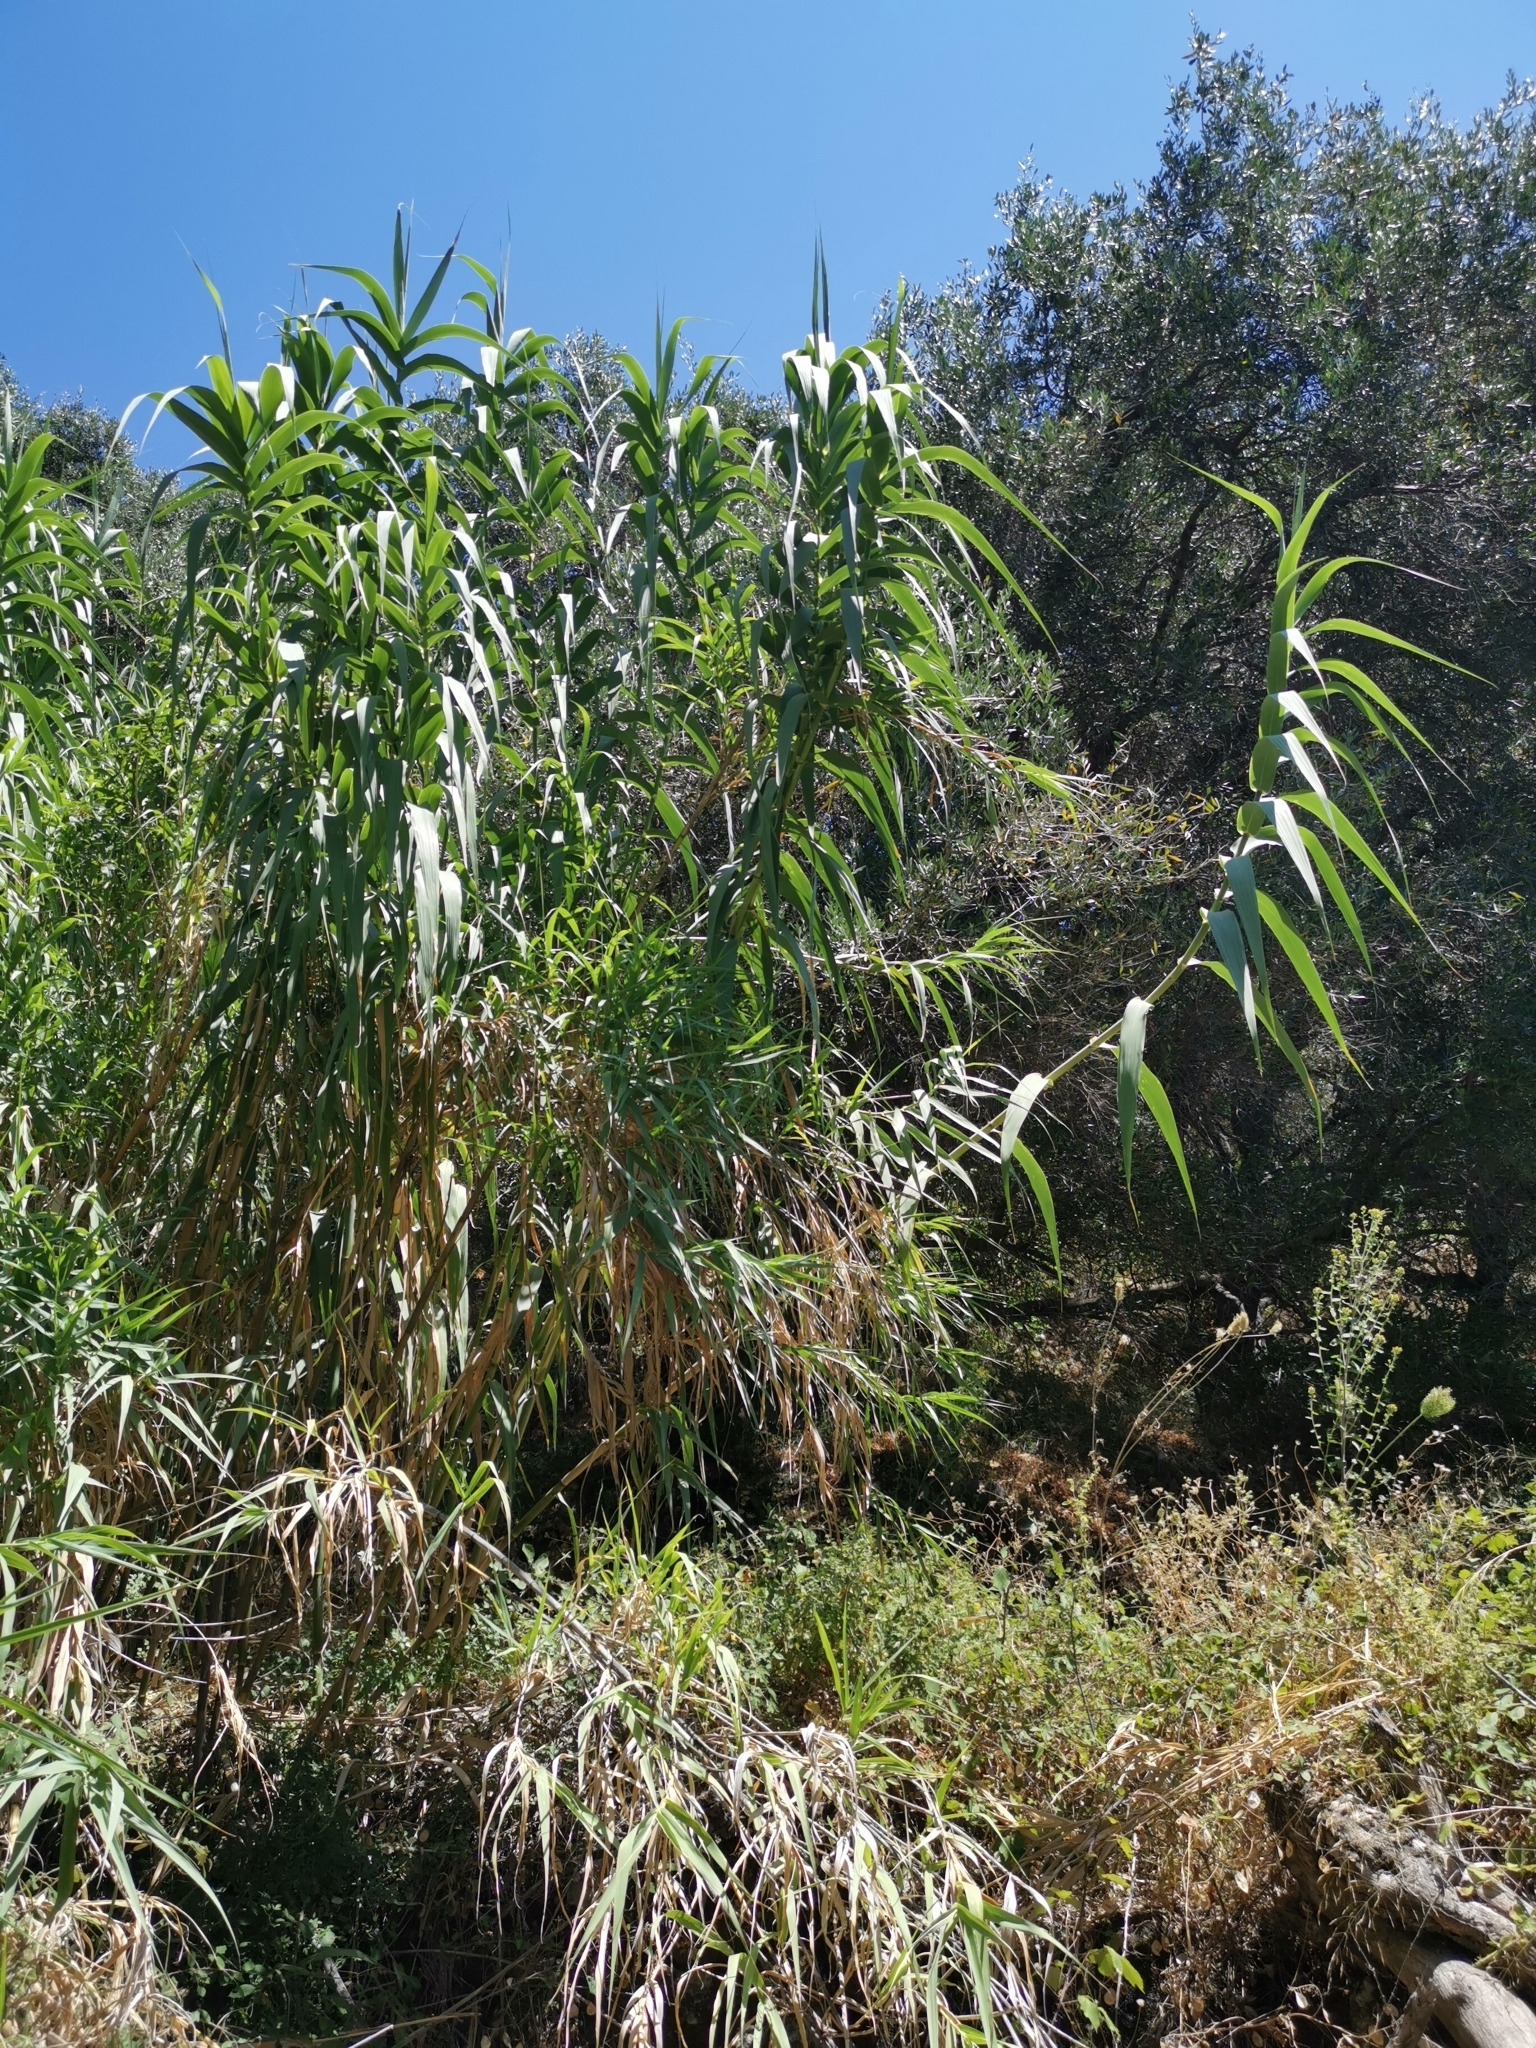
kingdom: Plantae
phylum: Tracheophyta
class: Liliopsida
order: Poales
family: Poaceae
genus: Arundo
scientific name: Arundo donax
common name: Giant reed
